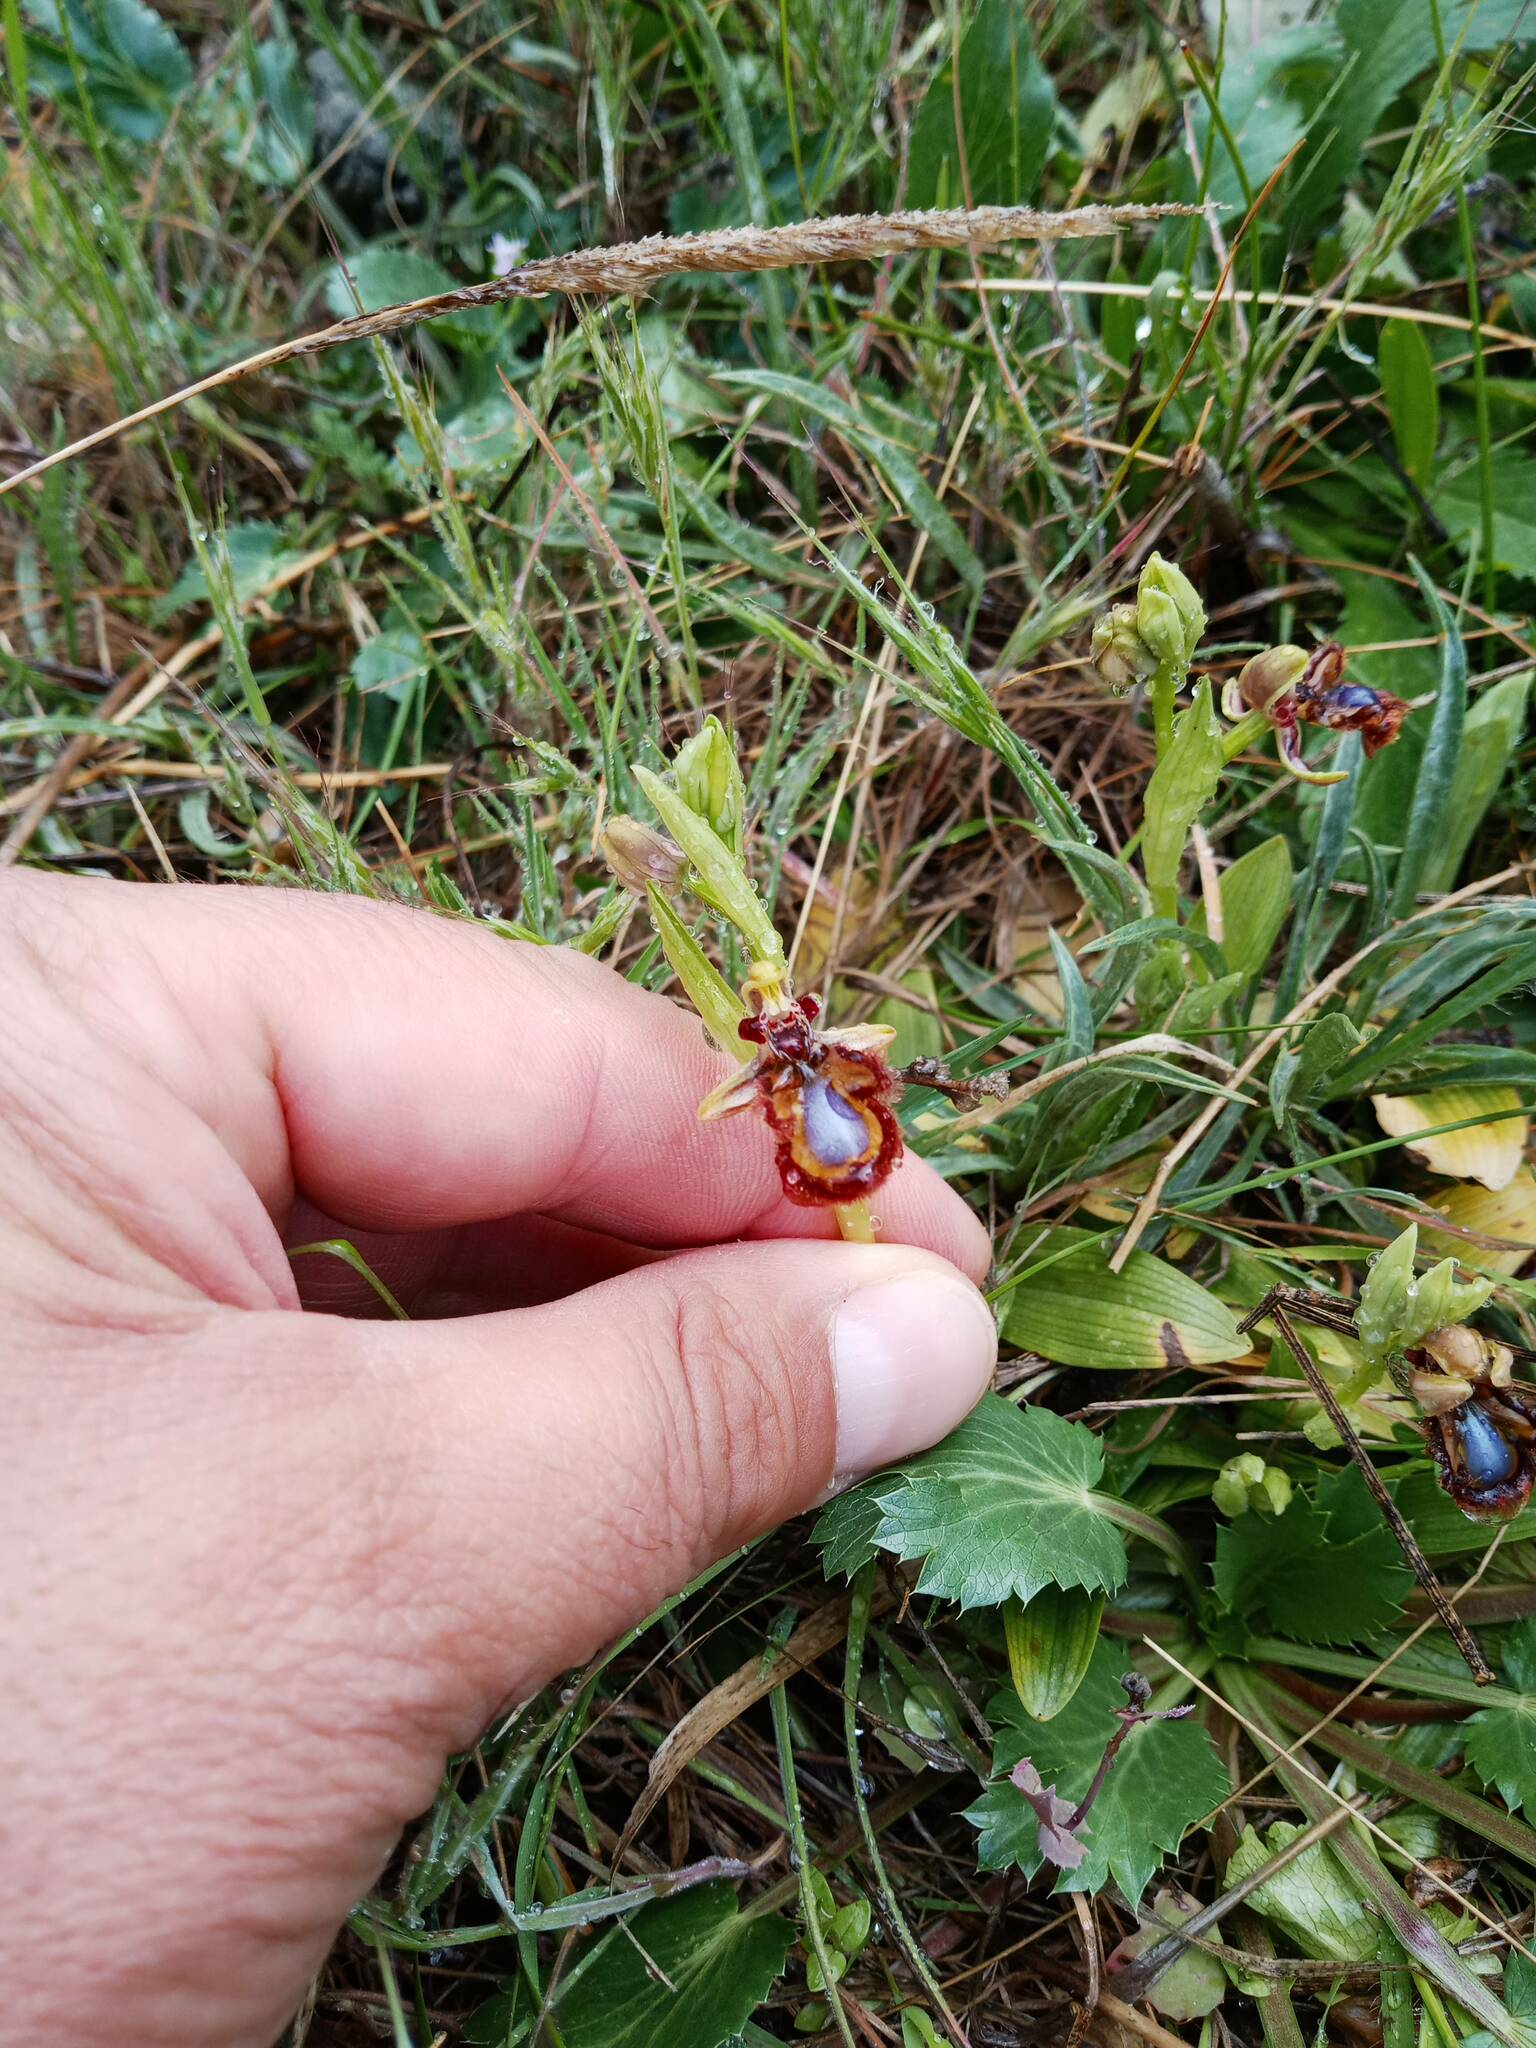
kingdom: Plantae
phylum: Tracheophyta
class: Liliopsida
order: Asparagales
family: Orchidaceae
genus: Ophrys
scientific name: Ophrys speculum
